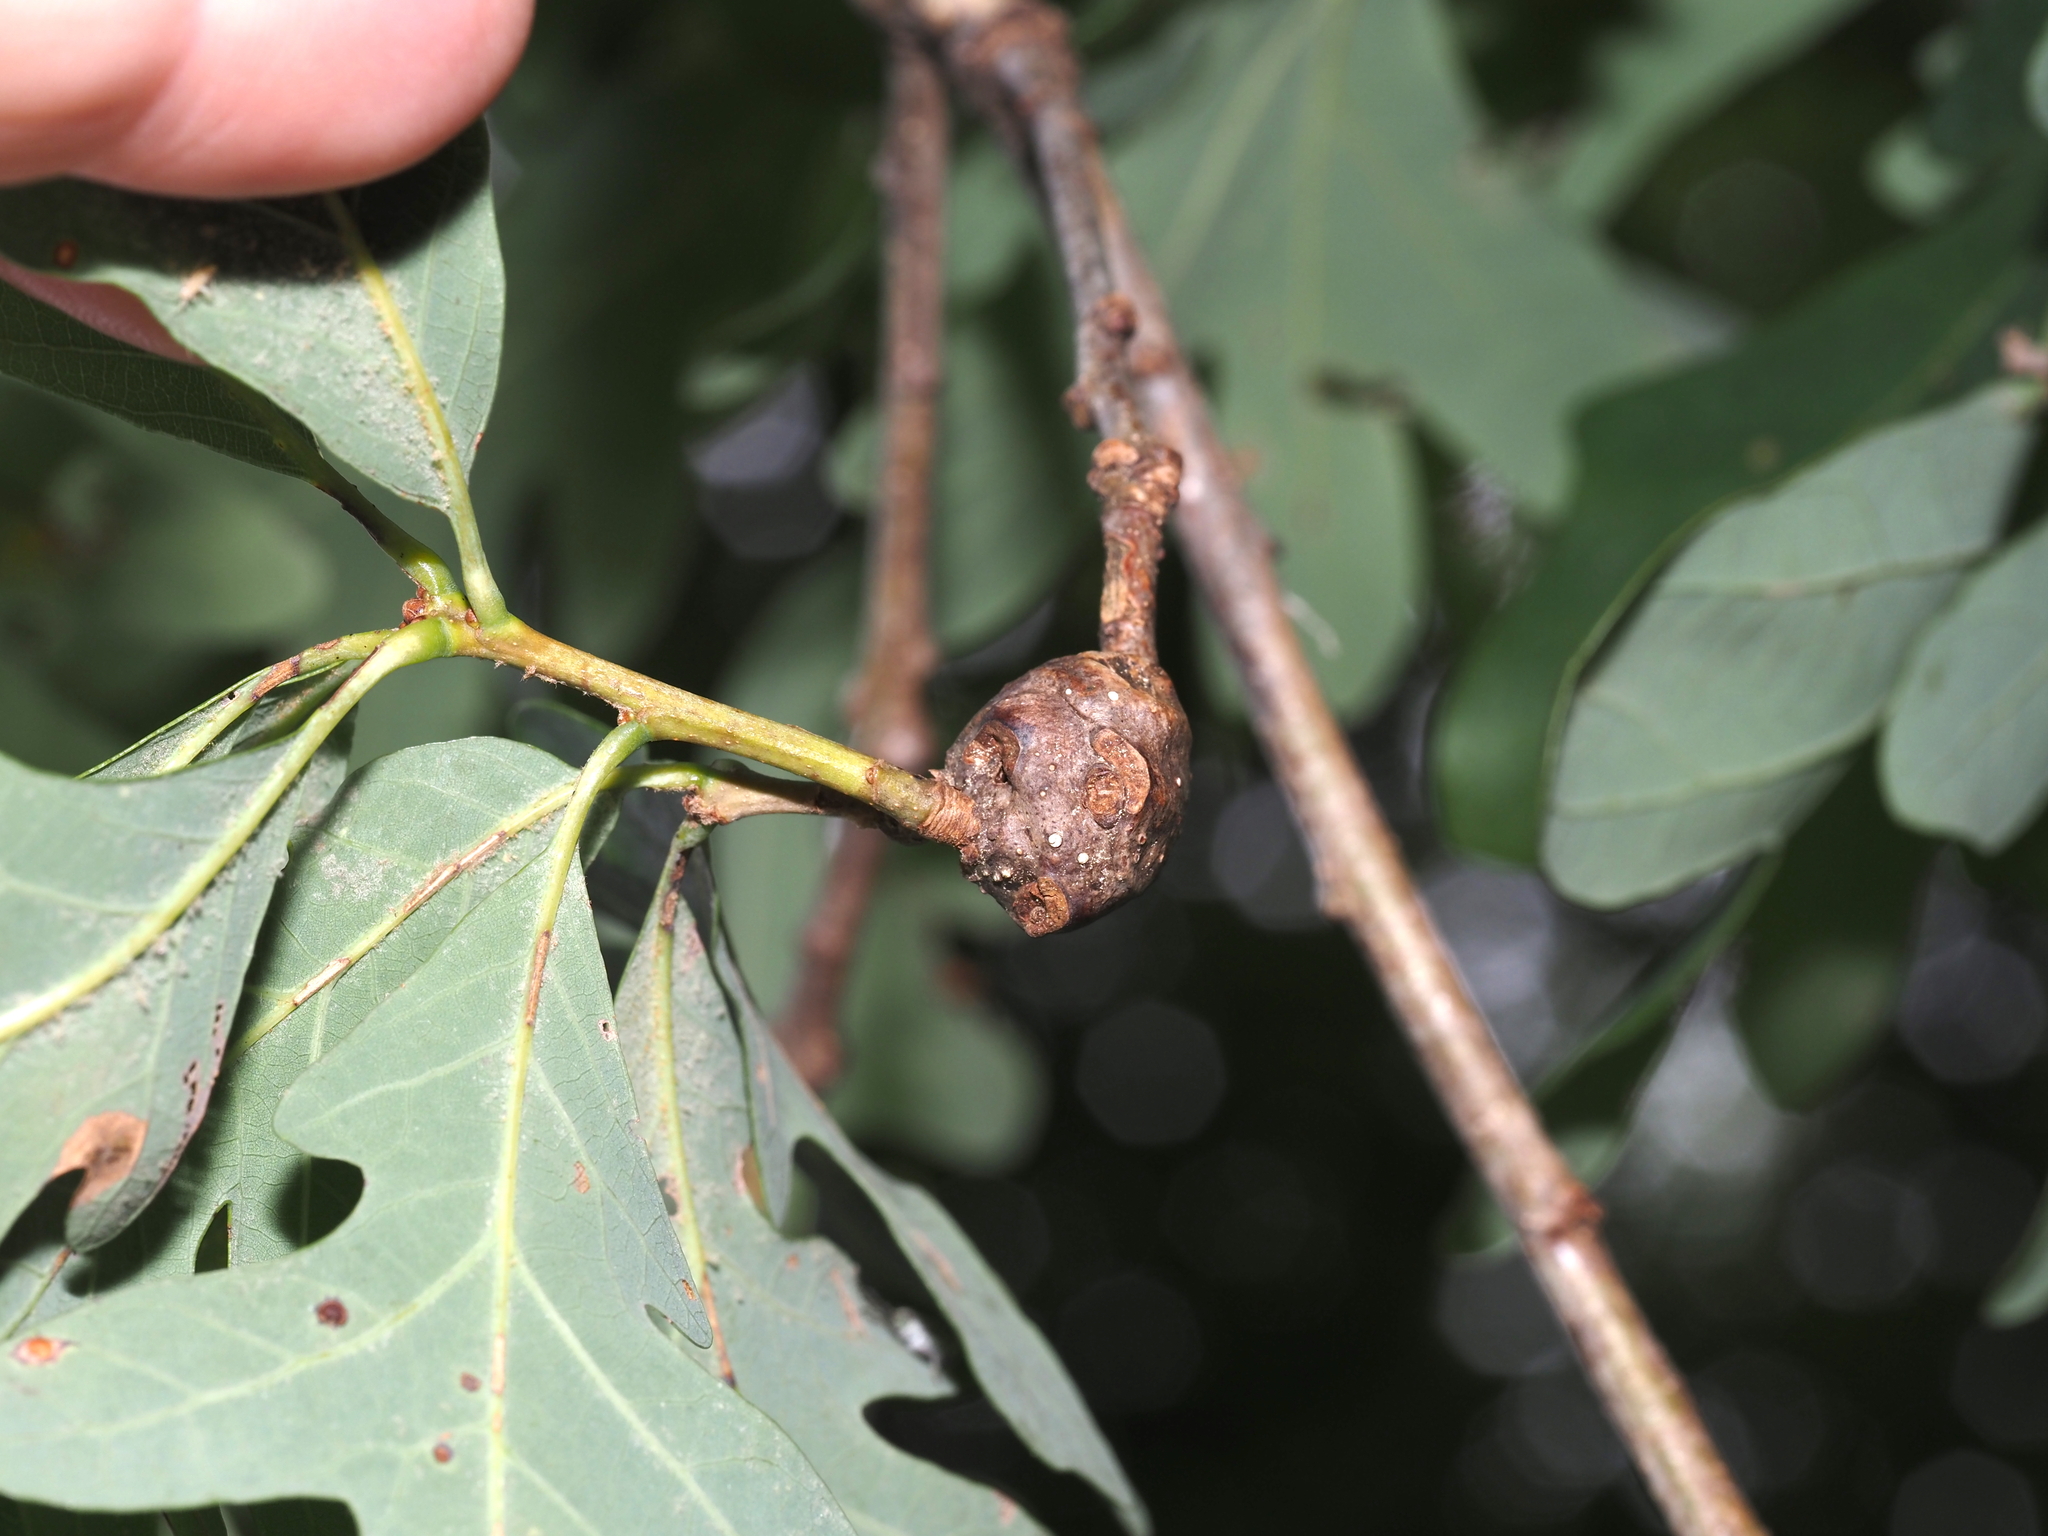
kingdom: Animalia
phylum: Arthropoda
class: Insecta
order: Hymenoptera
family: Cynipidae
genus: Callirhytis
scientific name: Callirhytis clavula
